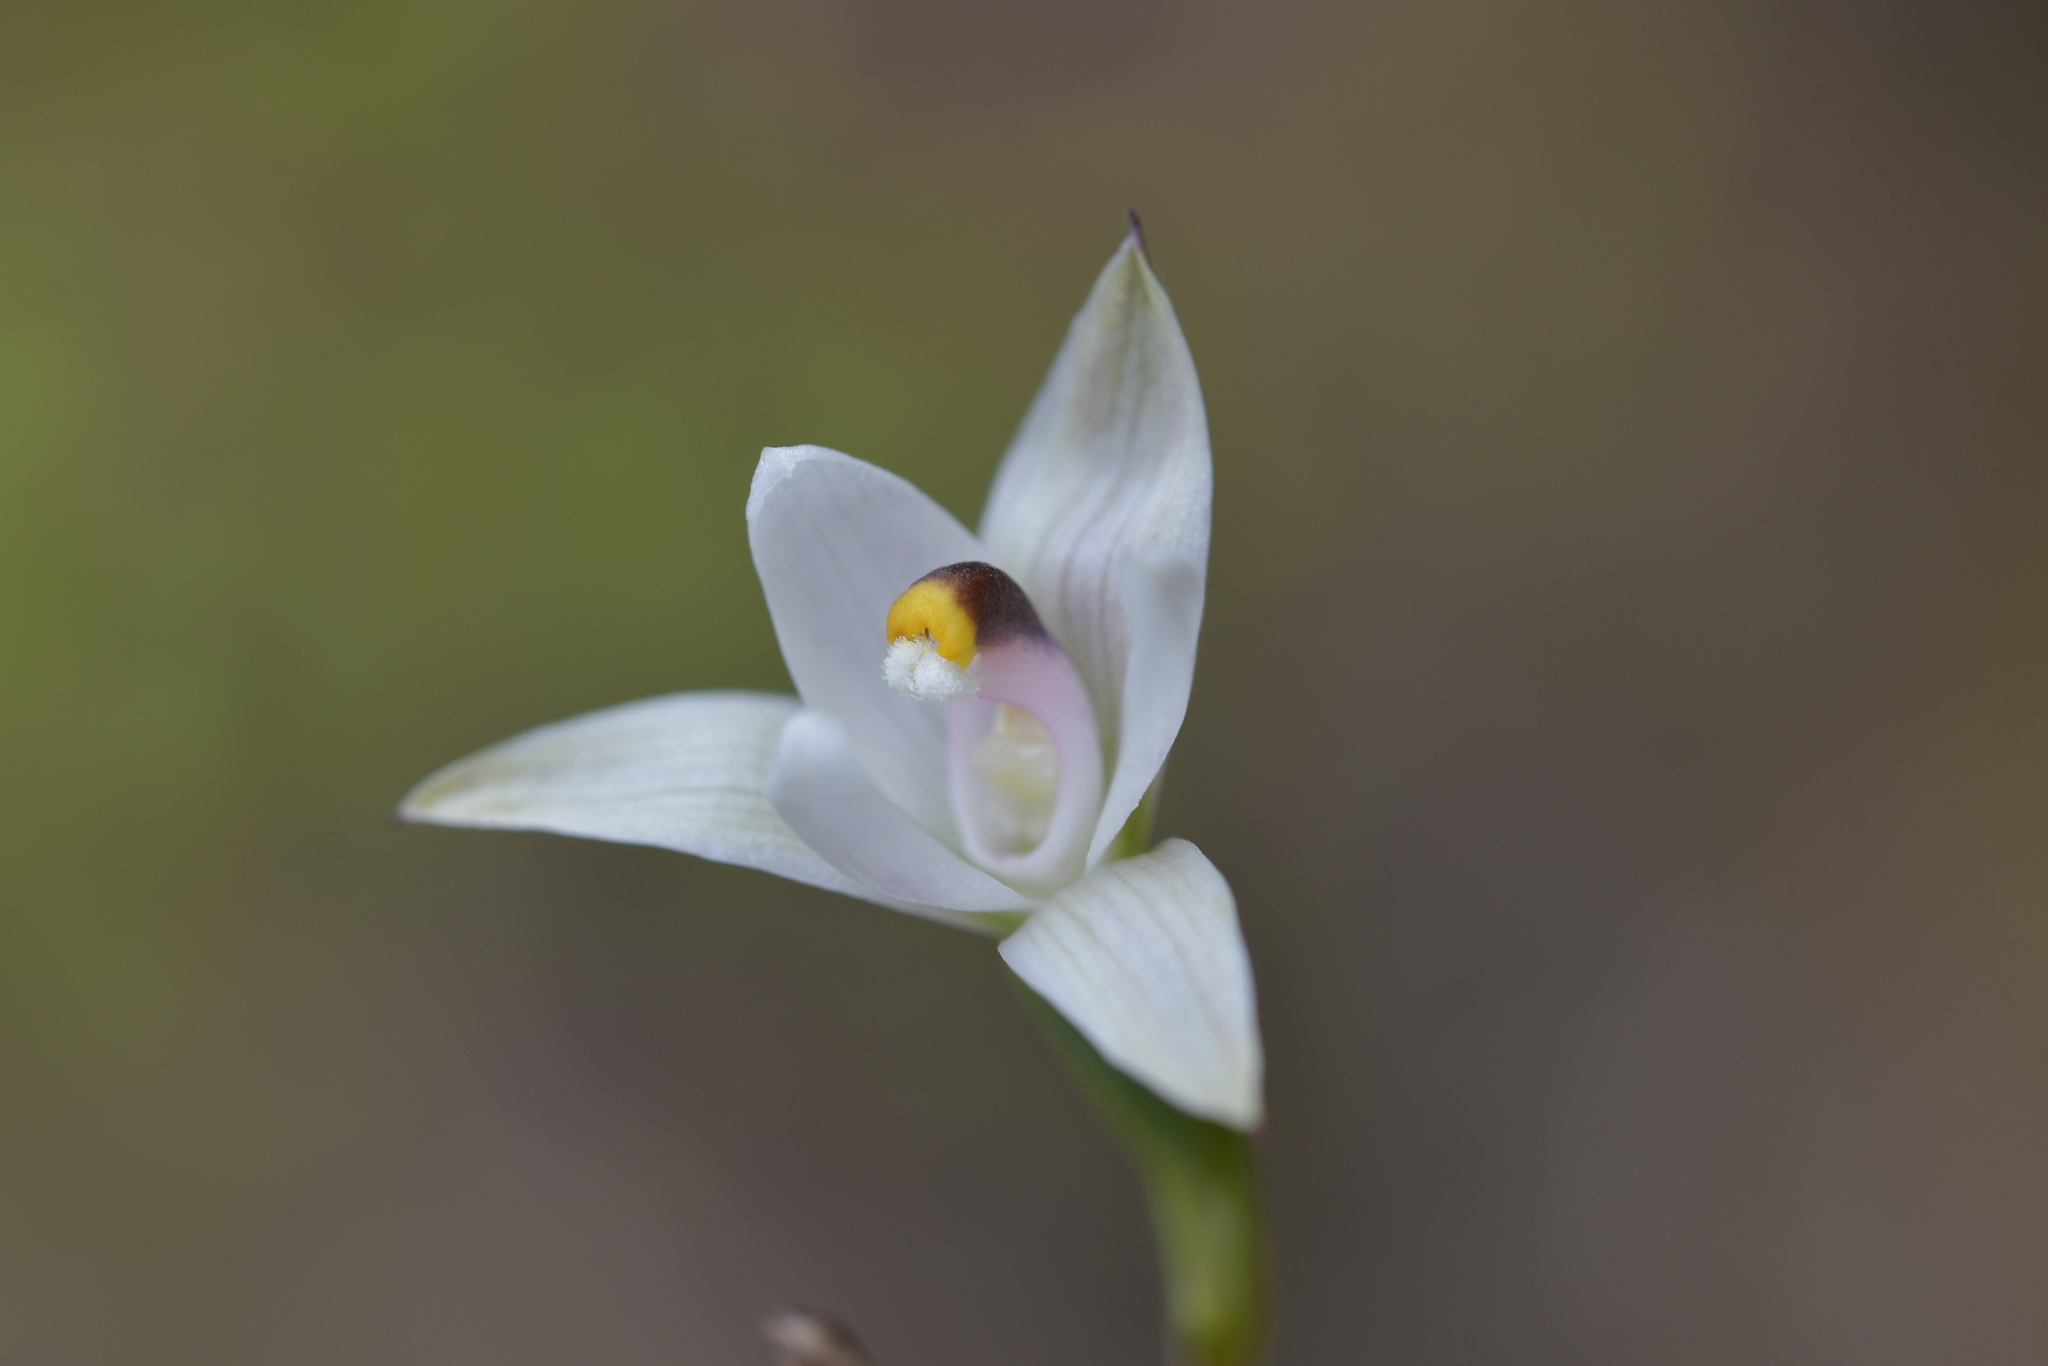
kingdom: Plantae
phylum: Tracheophyta
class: Liliopsida
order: Asparagales
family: Orchidaceae
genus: Thelymitra
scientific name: Thelymitra longifolia
